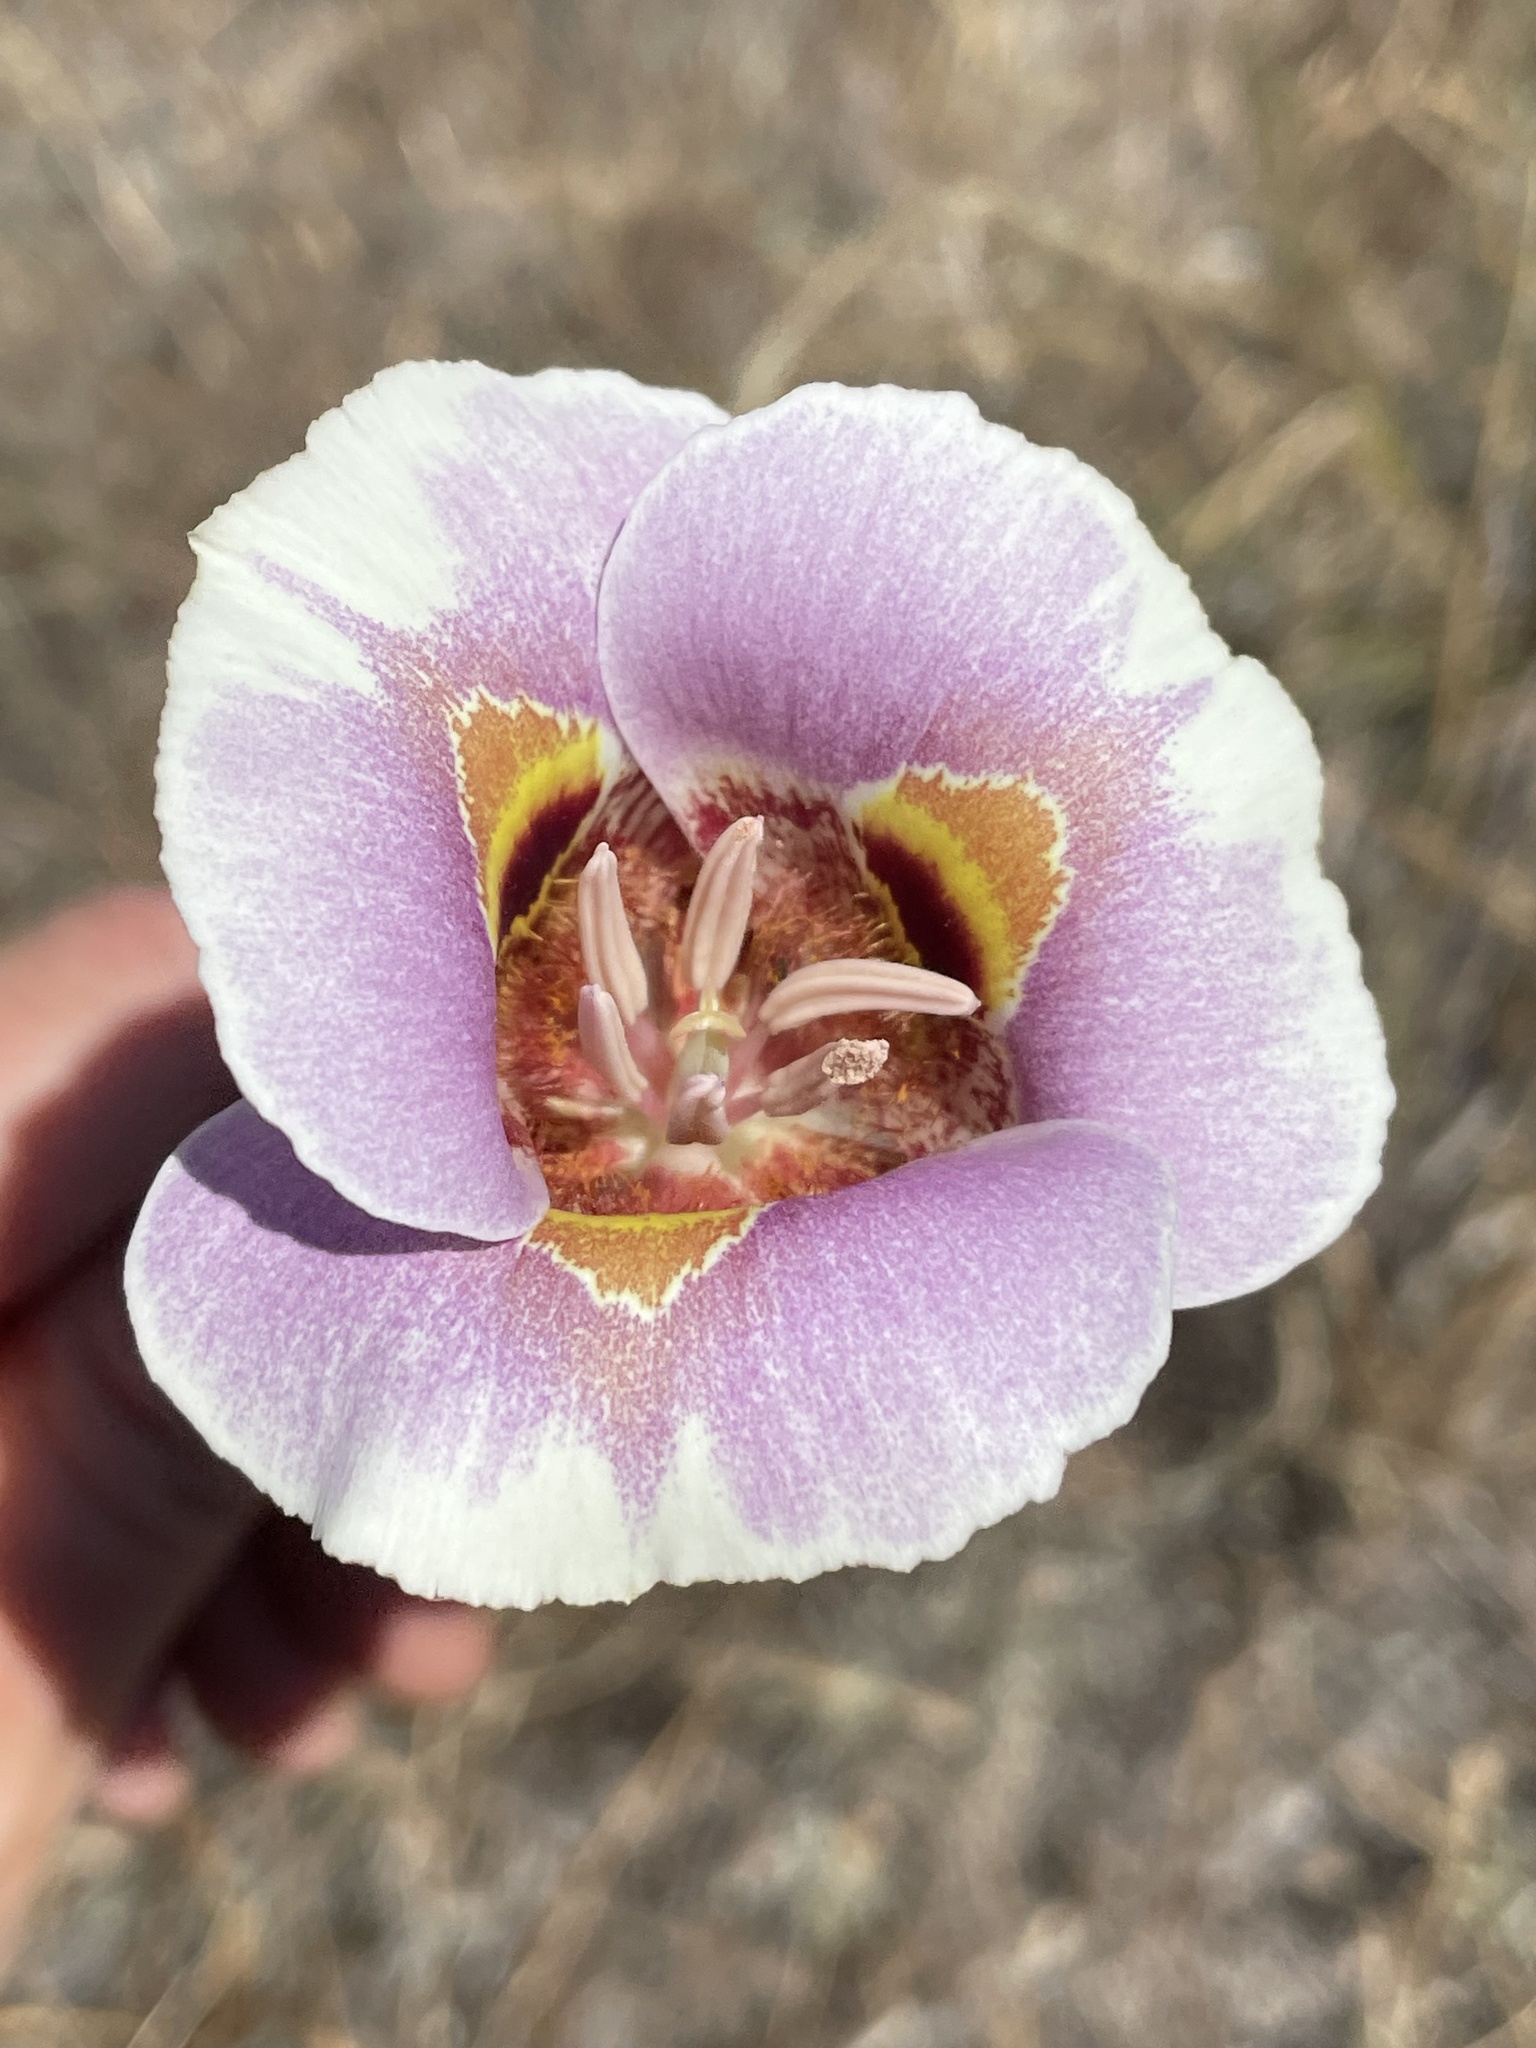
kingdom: Plantae
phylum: Tracheophyta
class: Liliopsida
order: Liliales
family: Liliaceae
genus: Calochortus
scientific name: Calochortus argillosus
